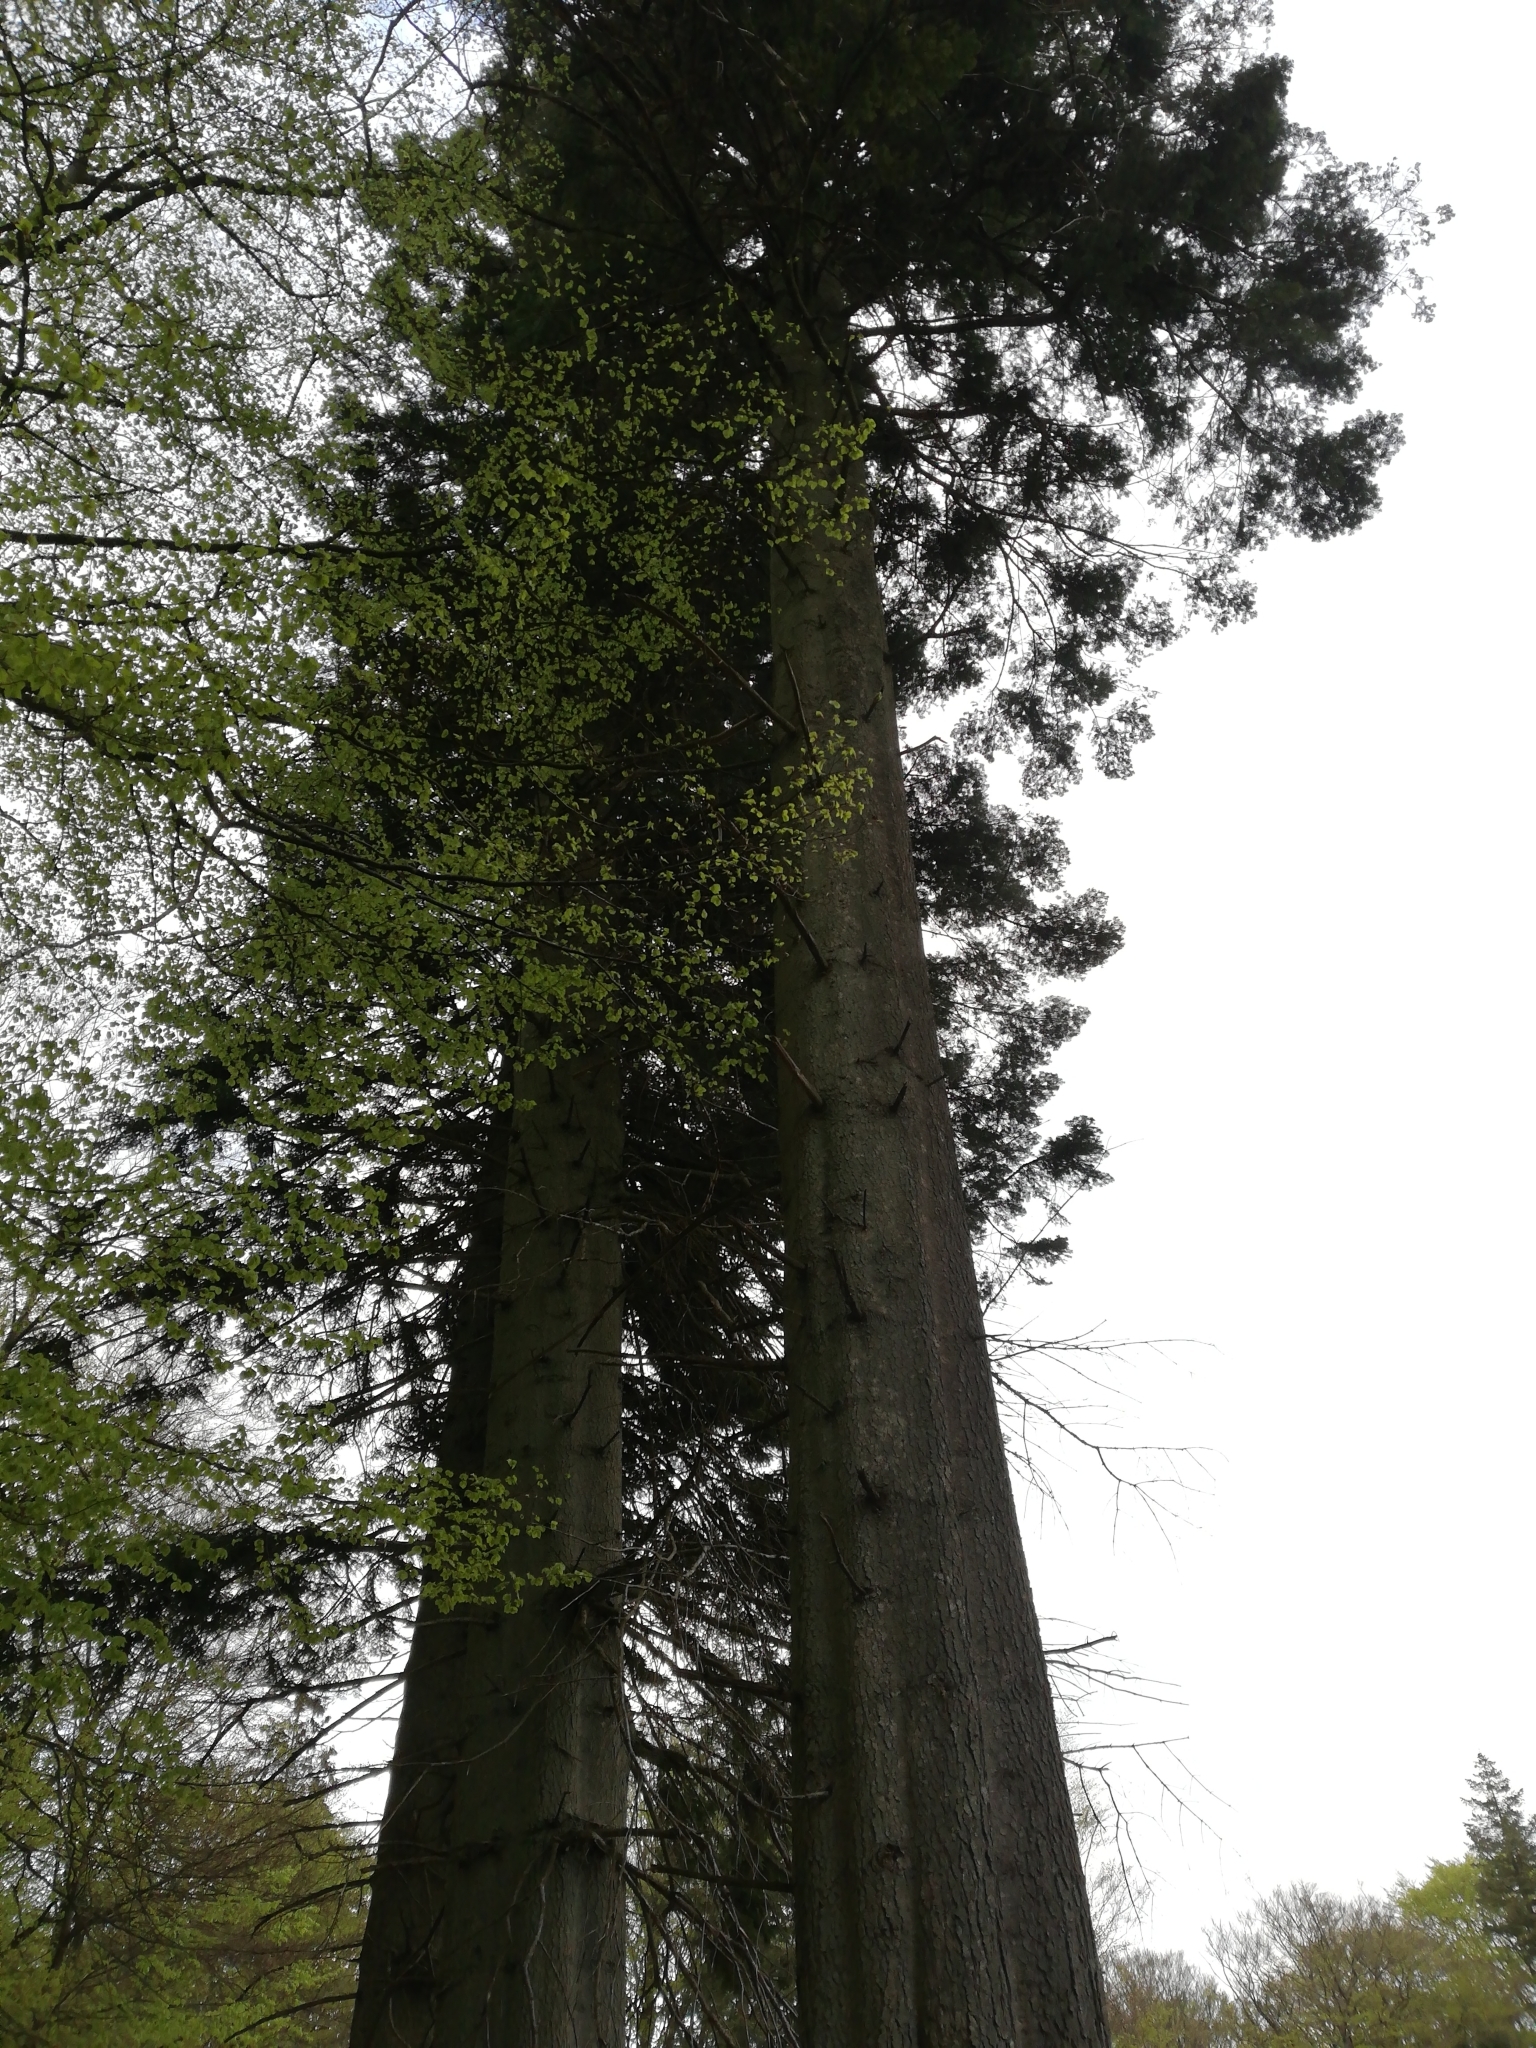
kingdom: Plantae
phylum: Tracheophyta
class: Pinopsida
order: Pinales
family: Pinaceae
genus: Abies
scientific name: Abies grandis
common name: Giant fir
